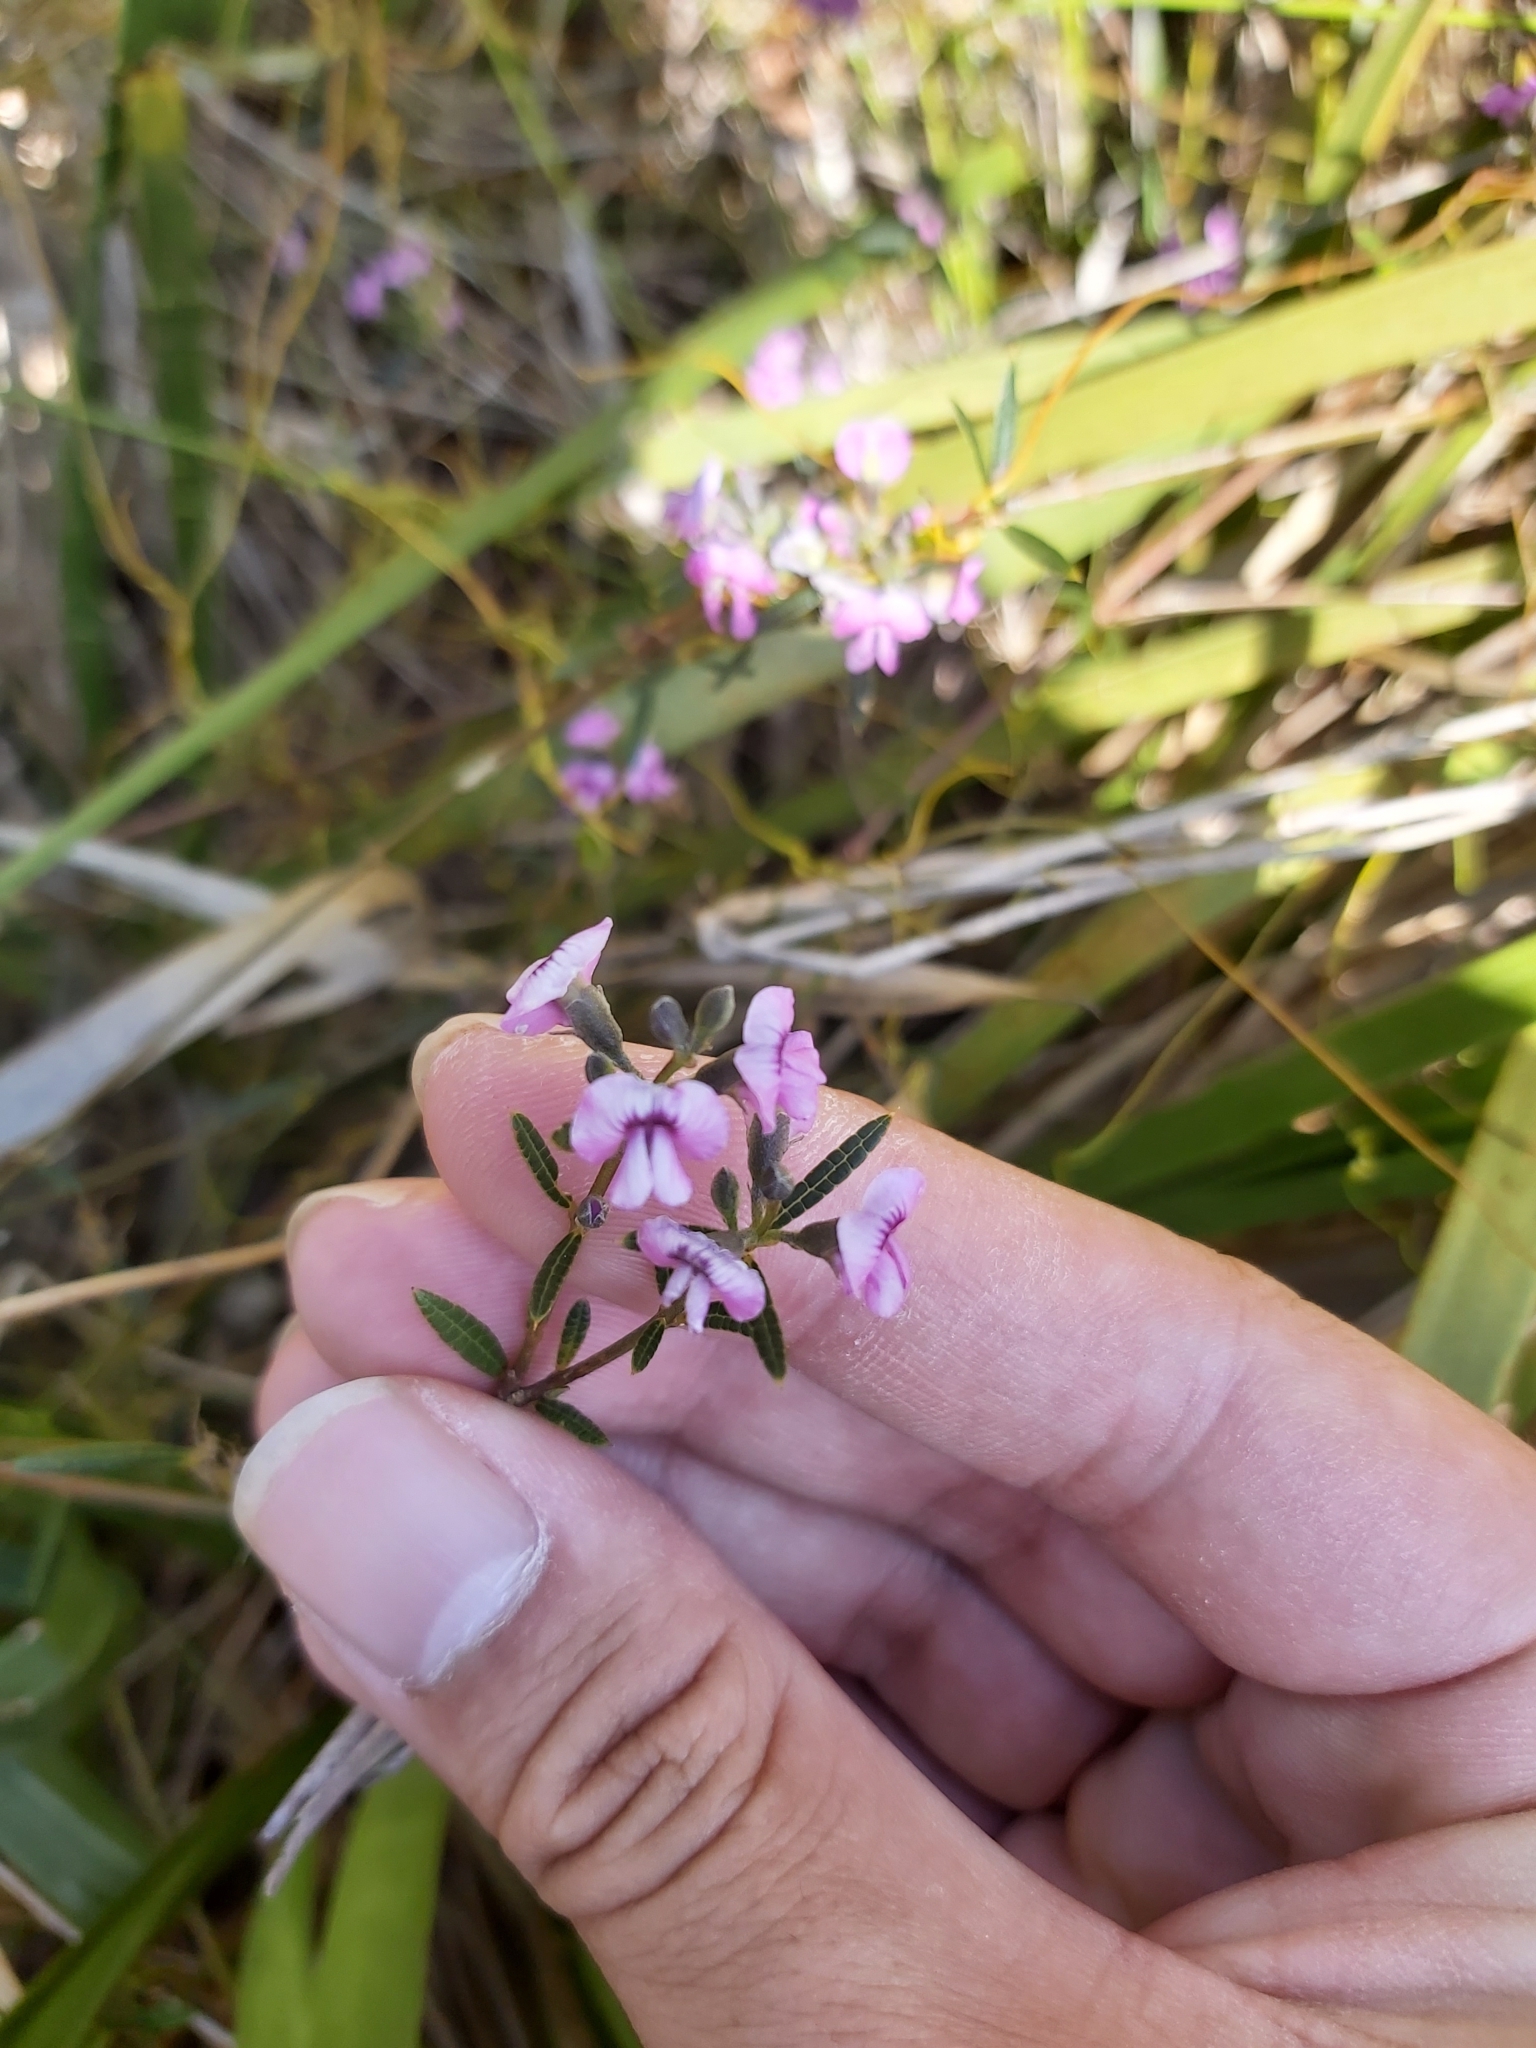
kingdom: Plantae
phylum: Tracheophyta
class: Magnoliopsida
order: Fabales
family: Fabaceae
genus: Mirbelia
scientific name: Mirbelia rubiifolia
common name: Heathy mirbelia
